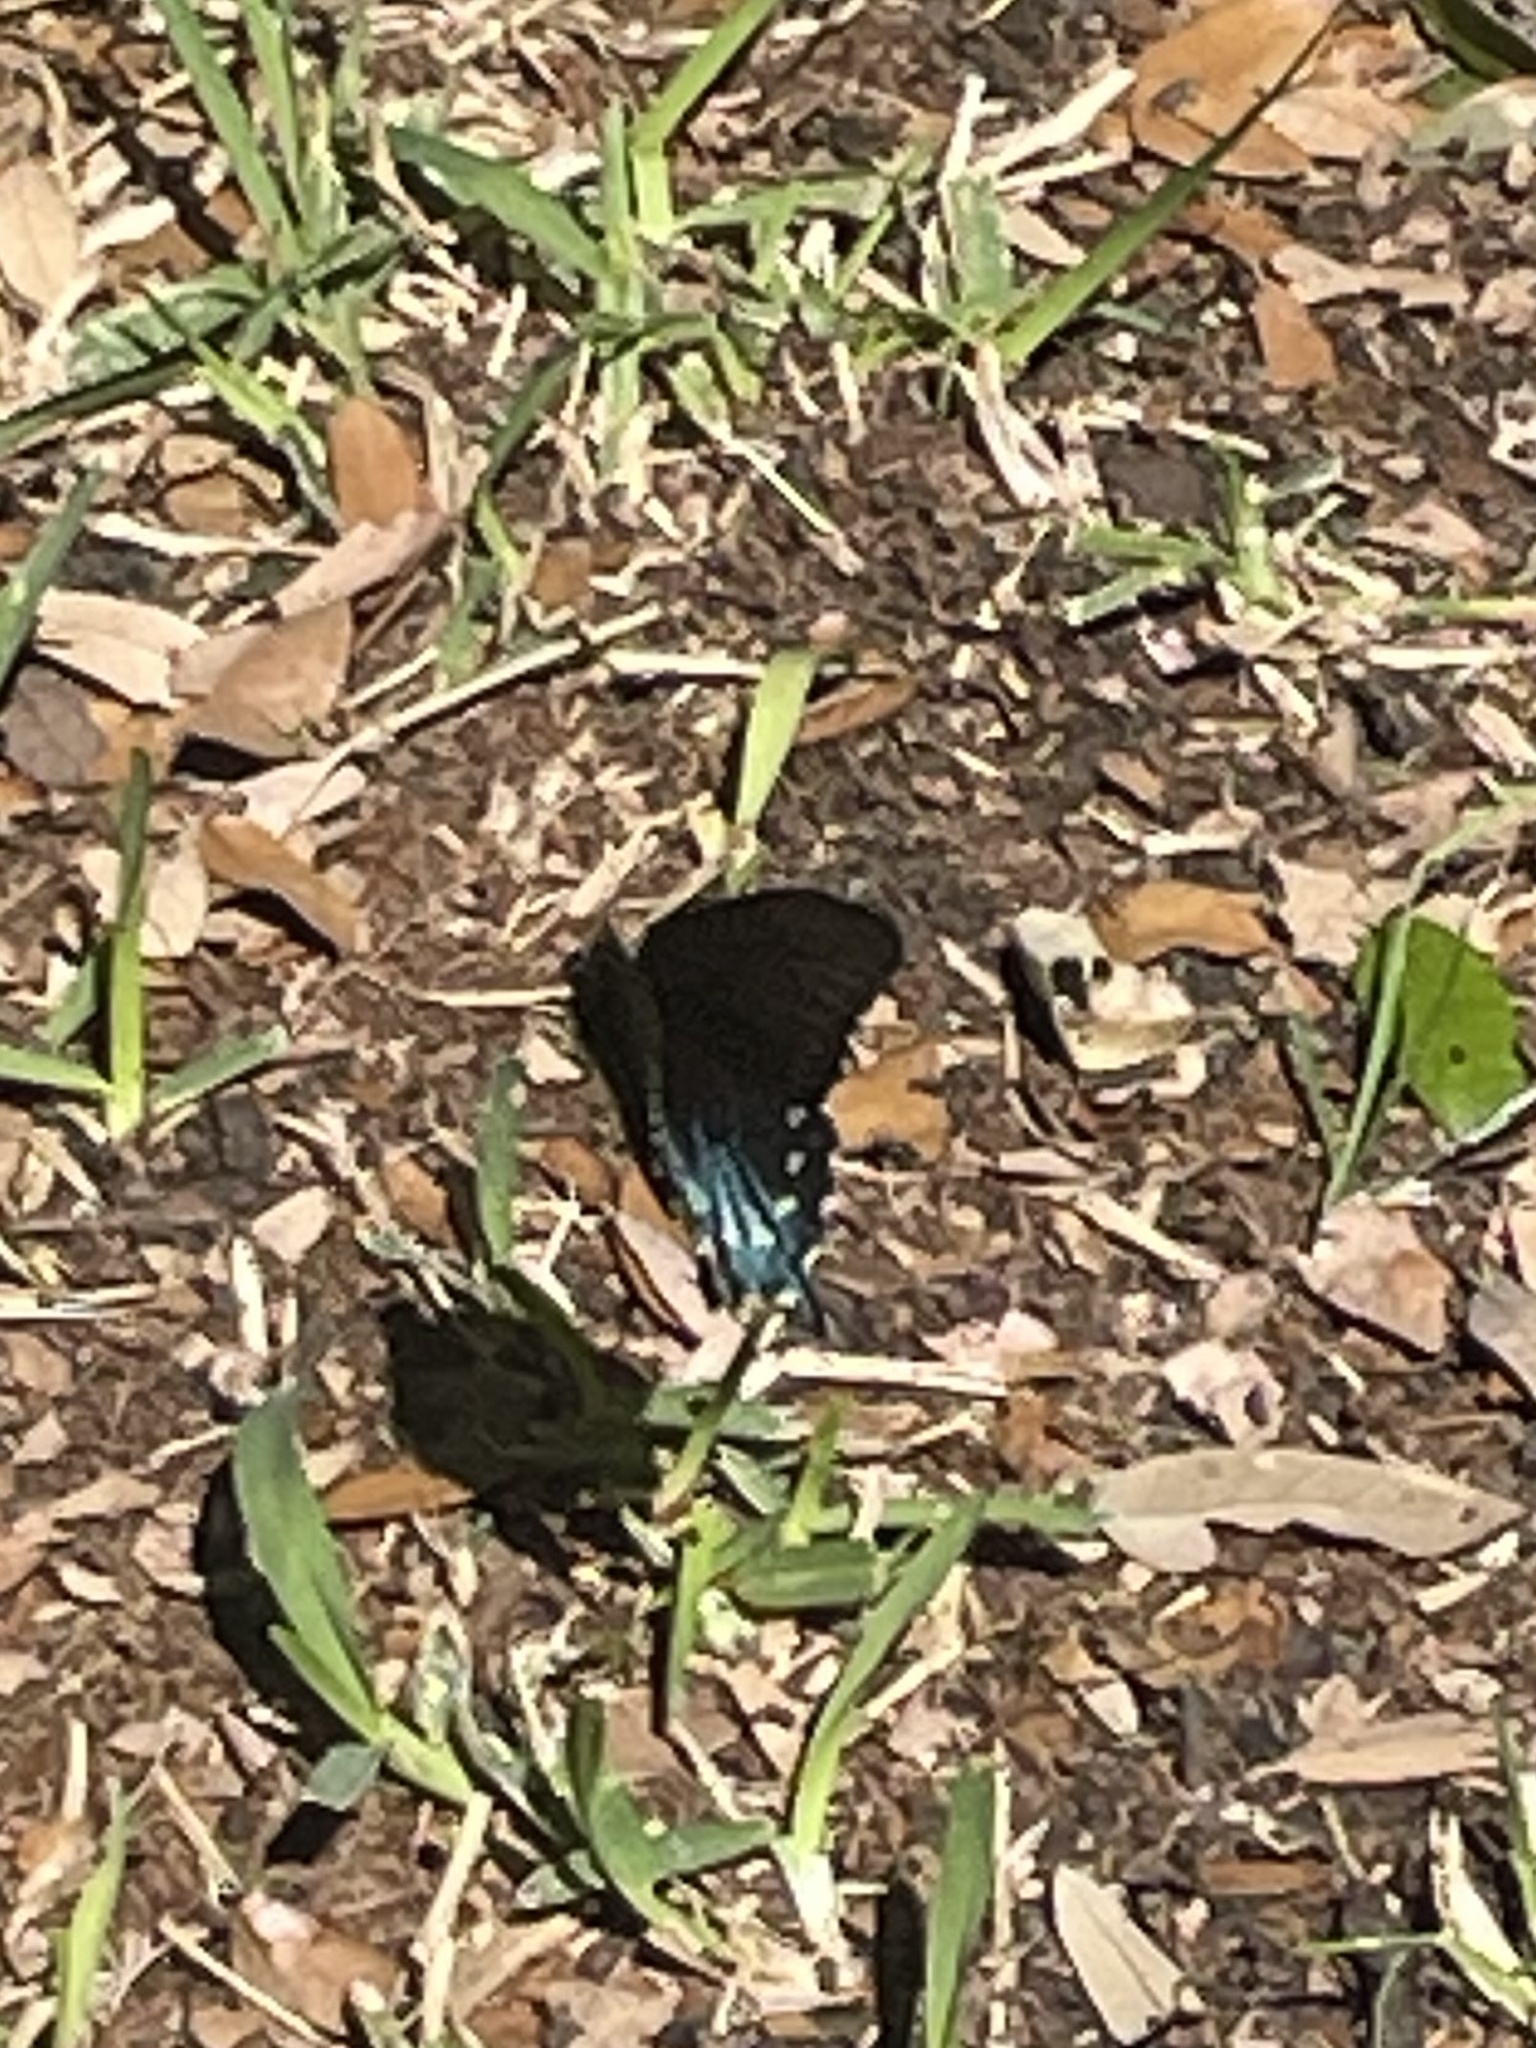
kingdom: Animalia
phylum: Arthropoda
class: Insecta
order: Lepidoptera
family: Papilionidae
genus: Battus
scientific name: Battus philenor
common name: Pipevine swallowtail
